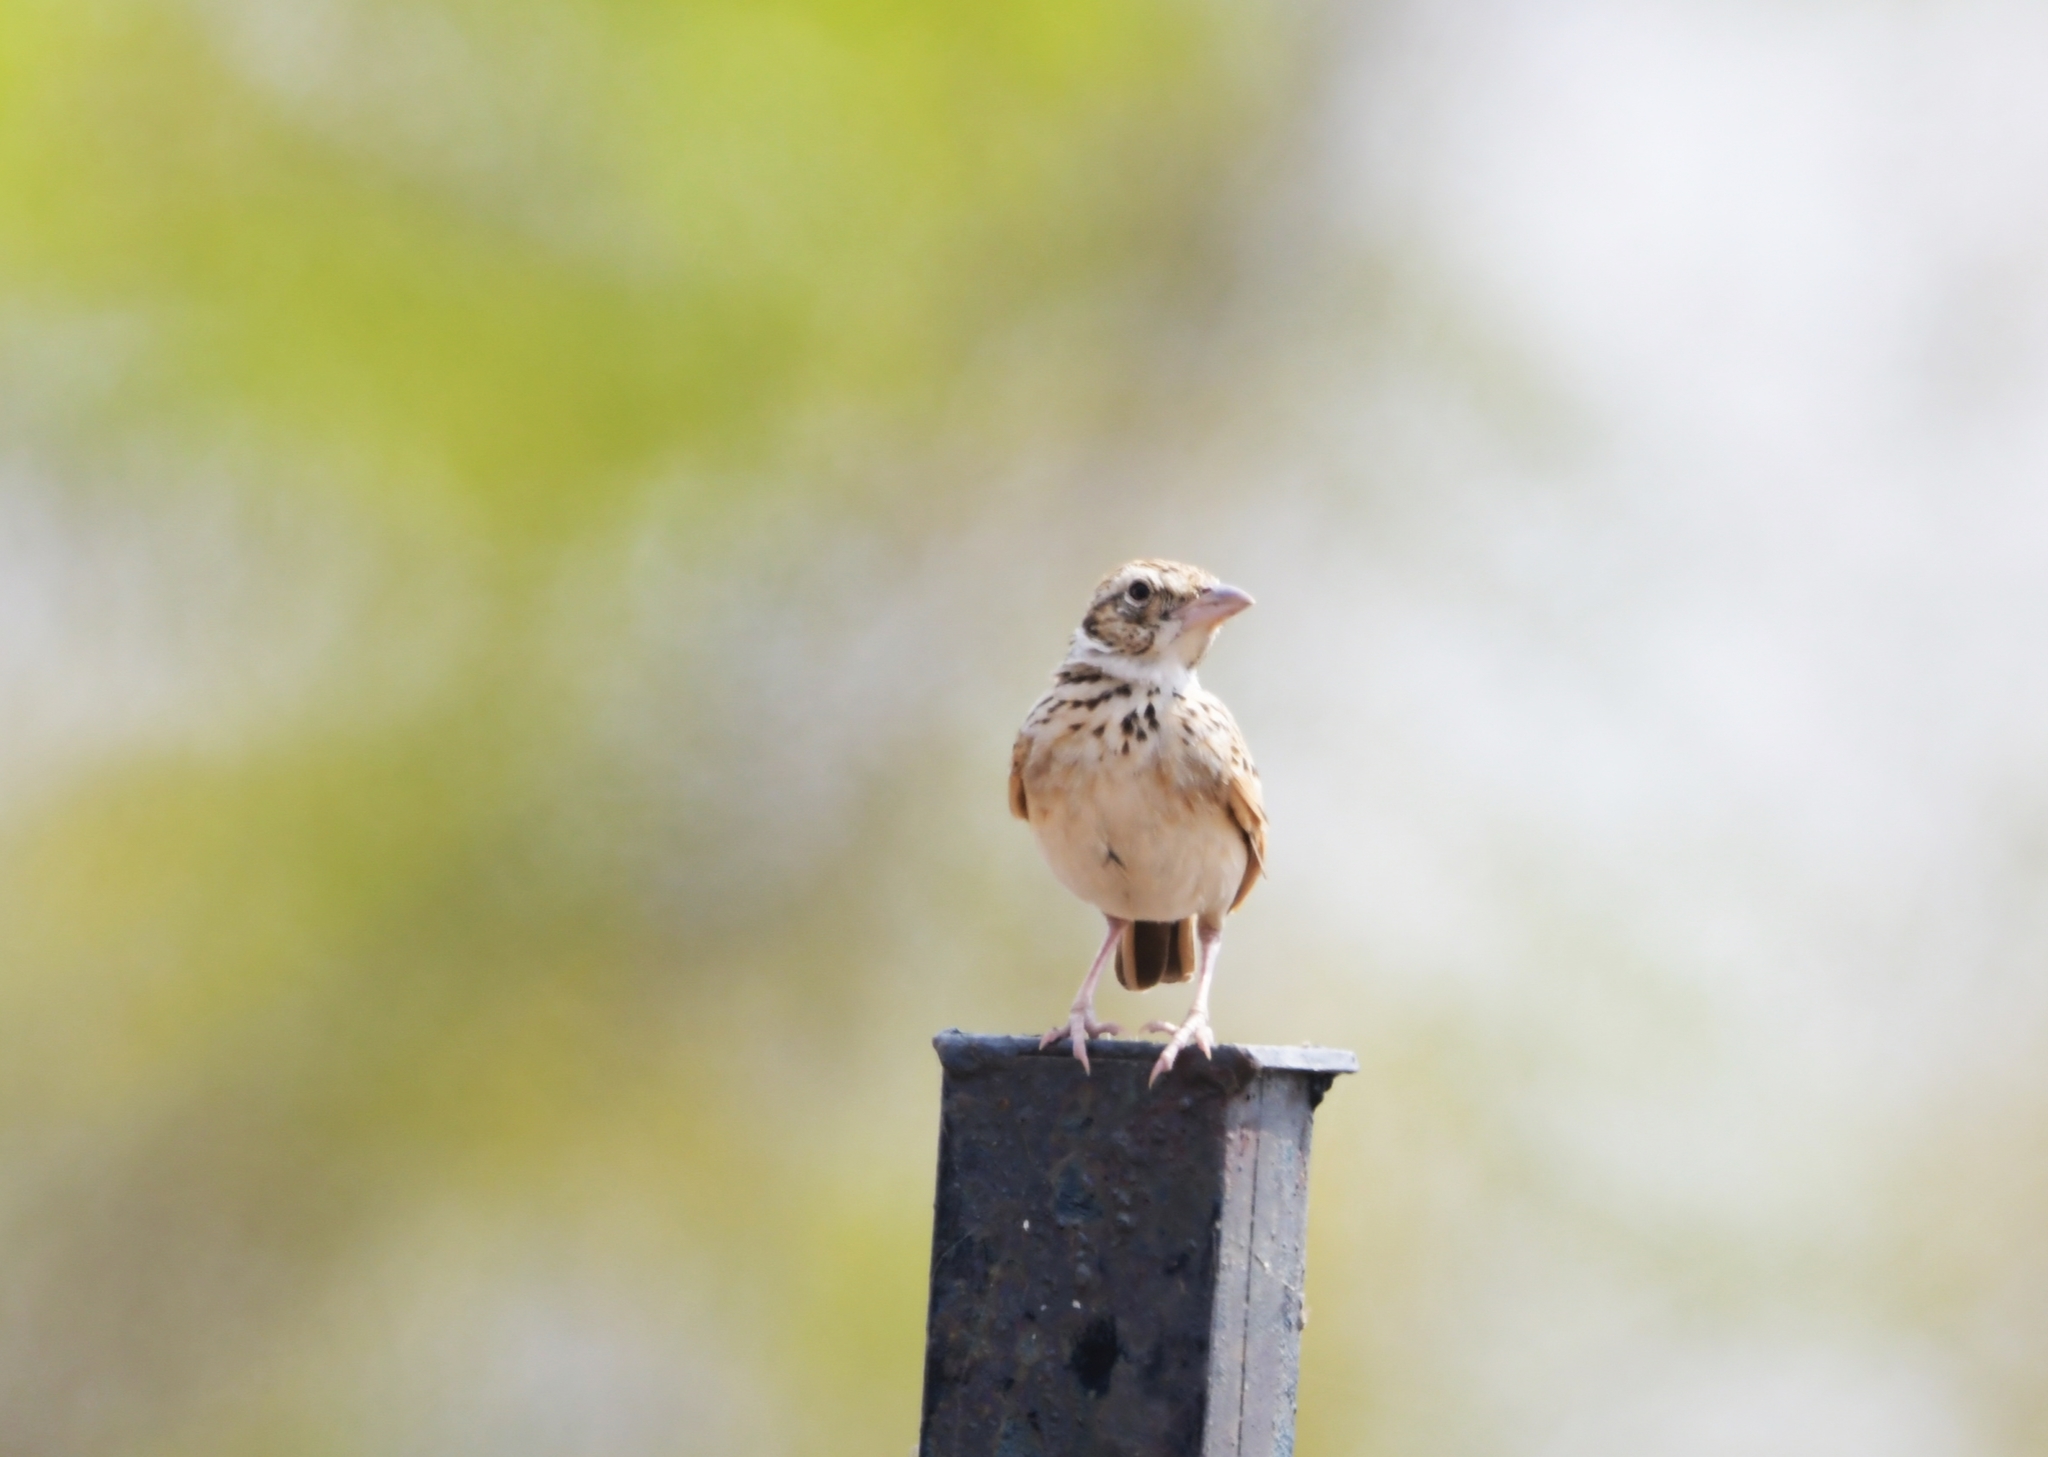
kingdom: Animalia
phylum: Chordata
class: Aves
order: Passeriformes
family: Alaudidae
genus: Mirafra
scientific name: Mirafra erythroptera
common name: Indian bush lark
